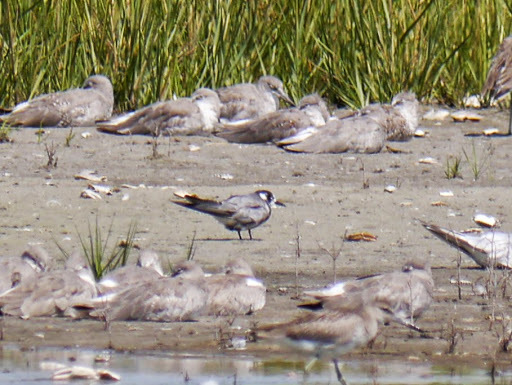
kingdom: Animalia
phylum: Chordata
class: Aves
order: Charadriiformes
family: Laridae
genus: Chlidonias
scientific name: Chlidonias niger
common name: Black tern
